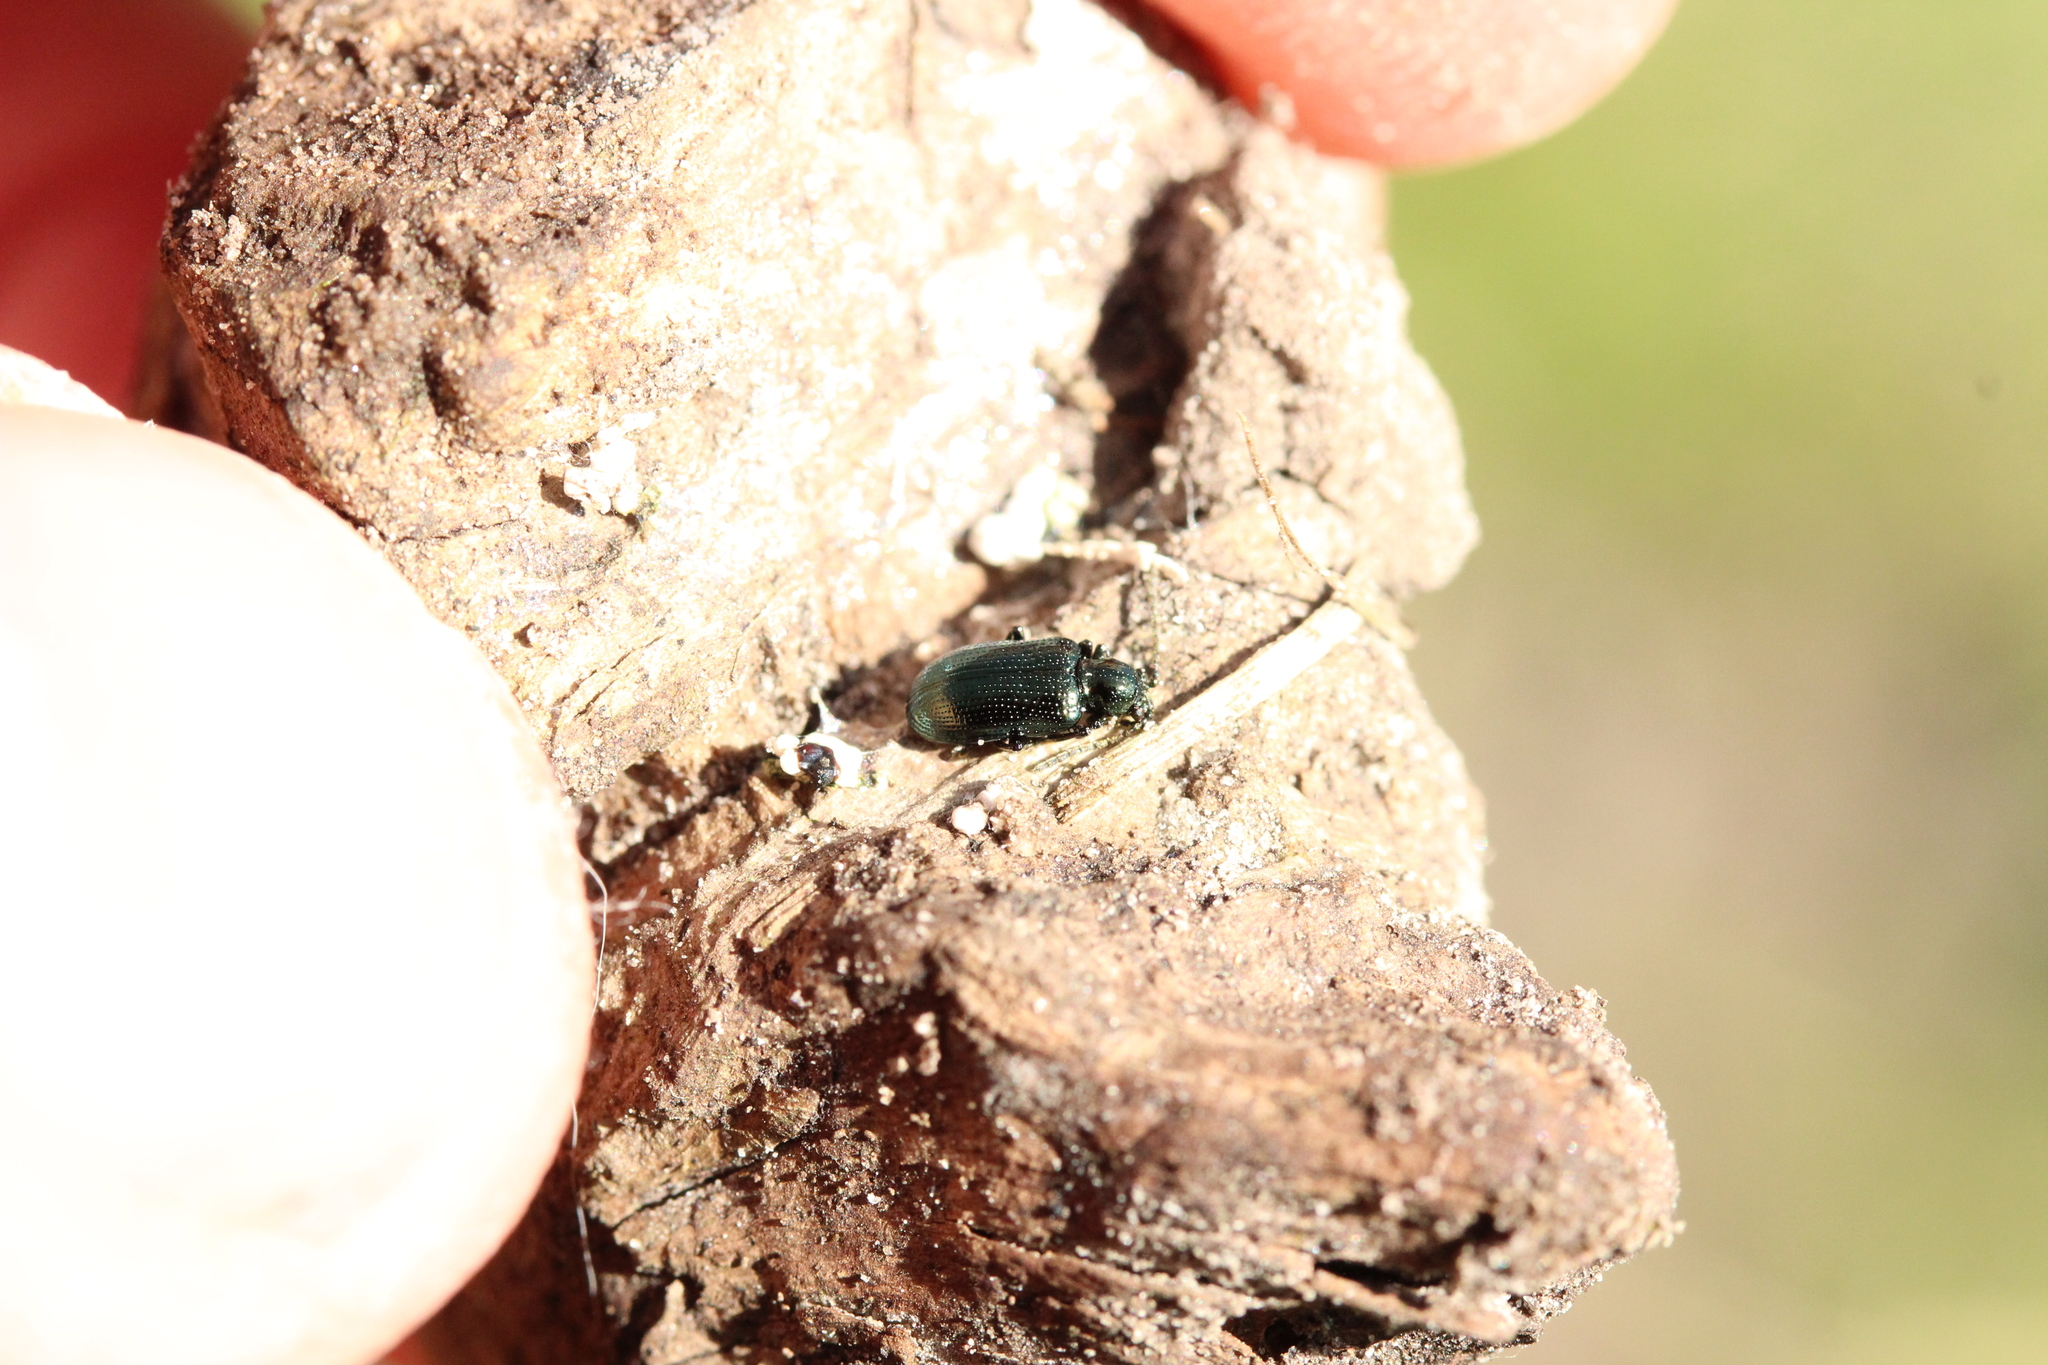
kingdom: Animalia
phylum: Arthropoda
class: Insecta
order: Coleoptera
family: Chrysomelidae
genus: Oulema
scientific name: Oulema gallaeciana
